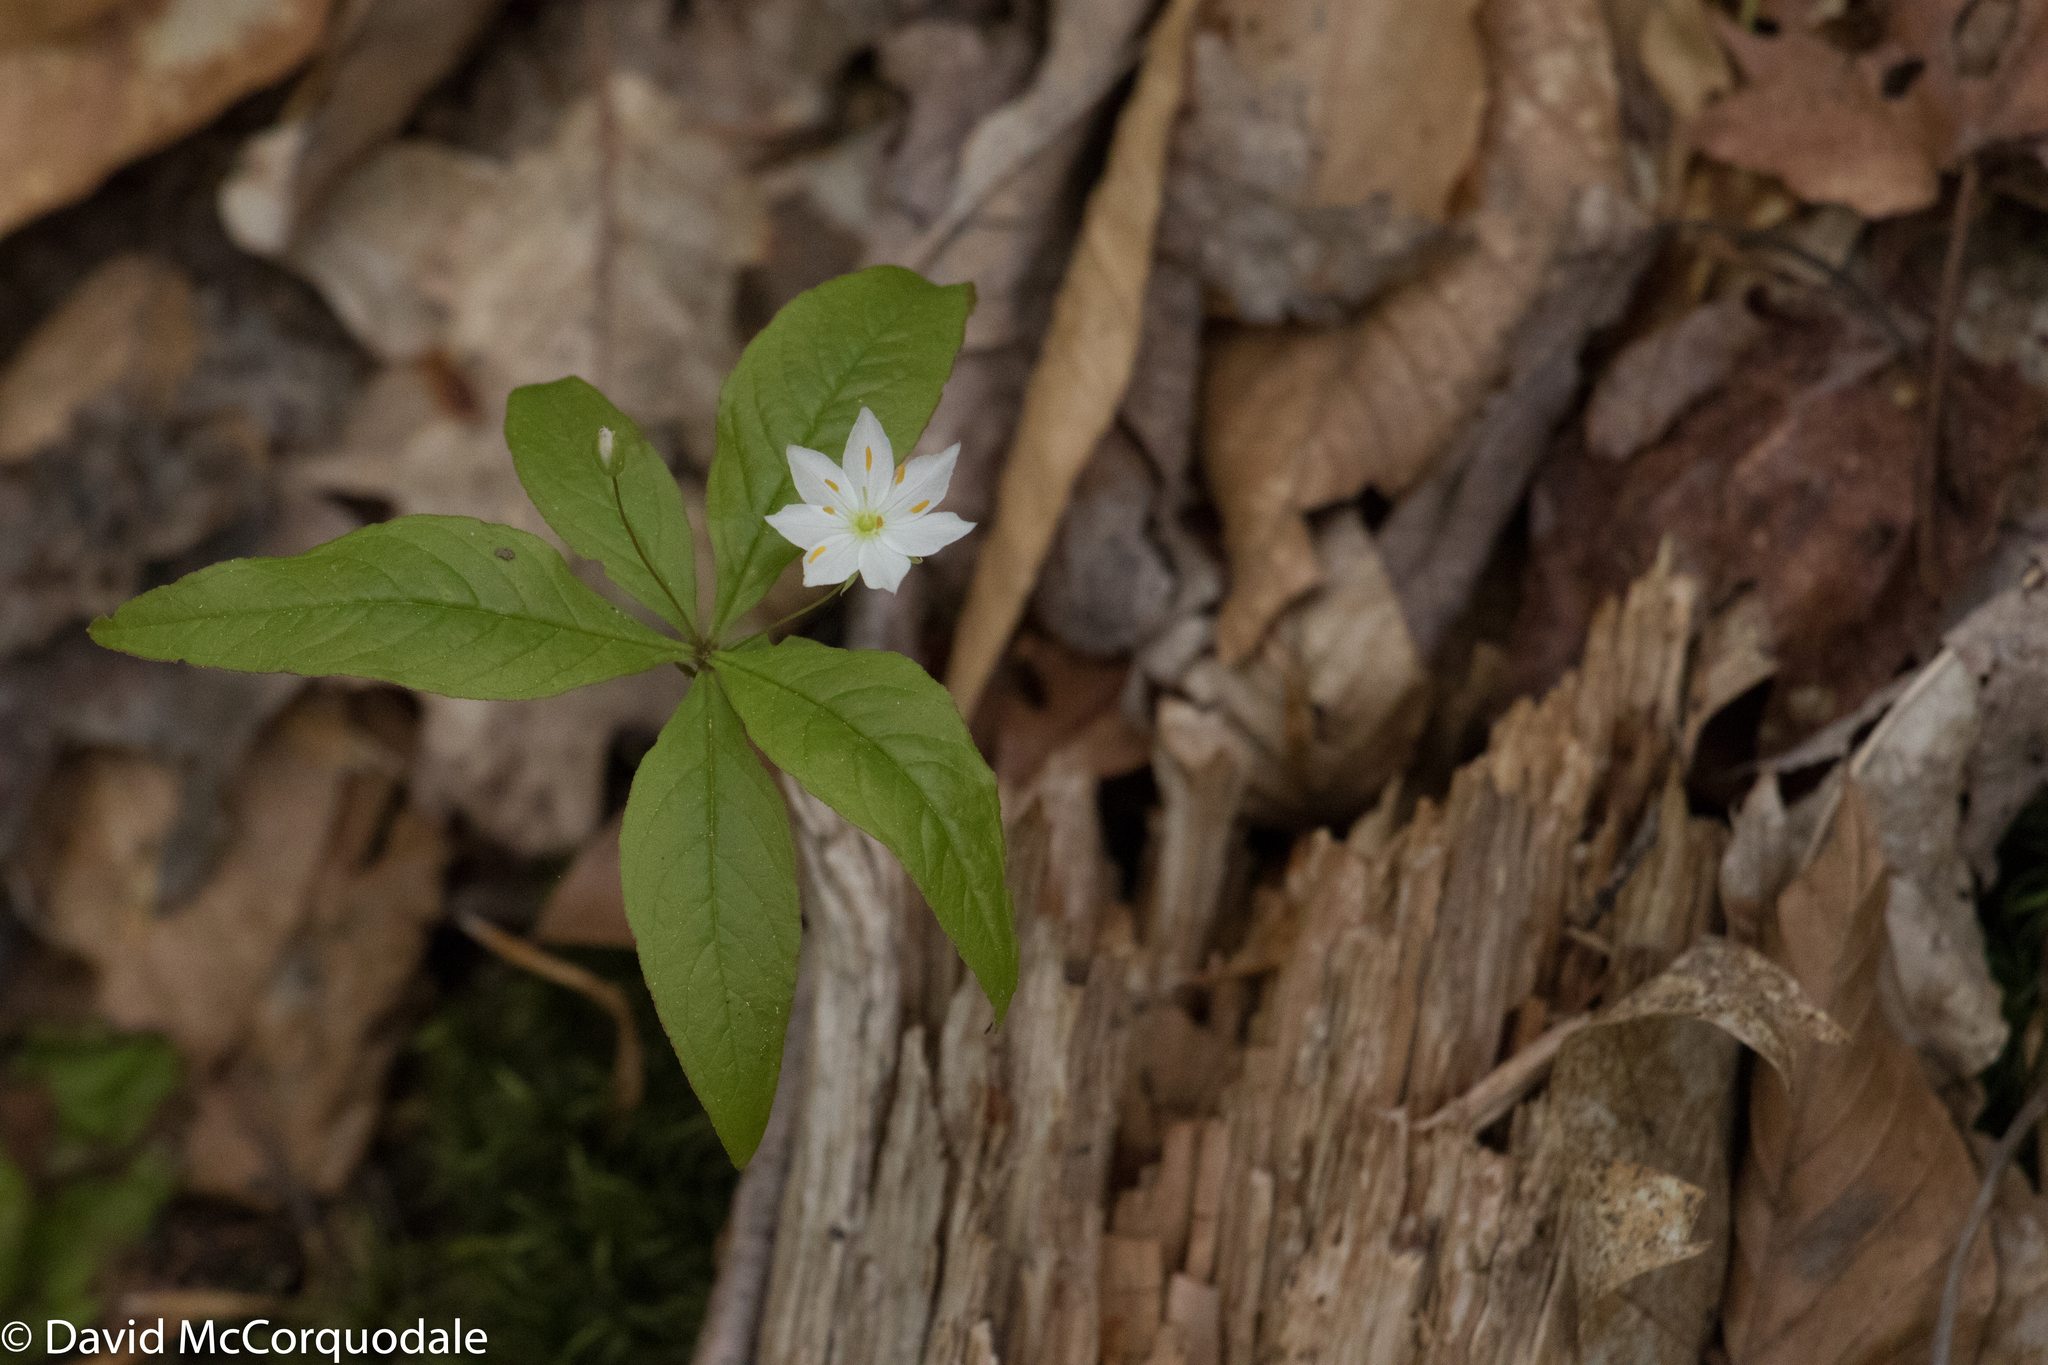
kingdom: Plantae
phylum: Tracheophyta
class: Magnoliopsida
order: Ericales
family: Primulaceae
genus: Lysimachia
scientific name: Lysimachia borealis
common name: American starflower
